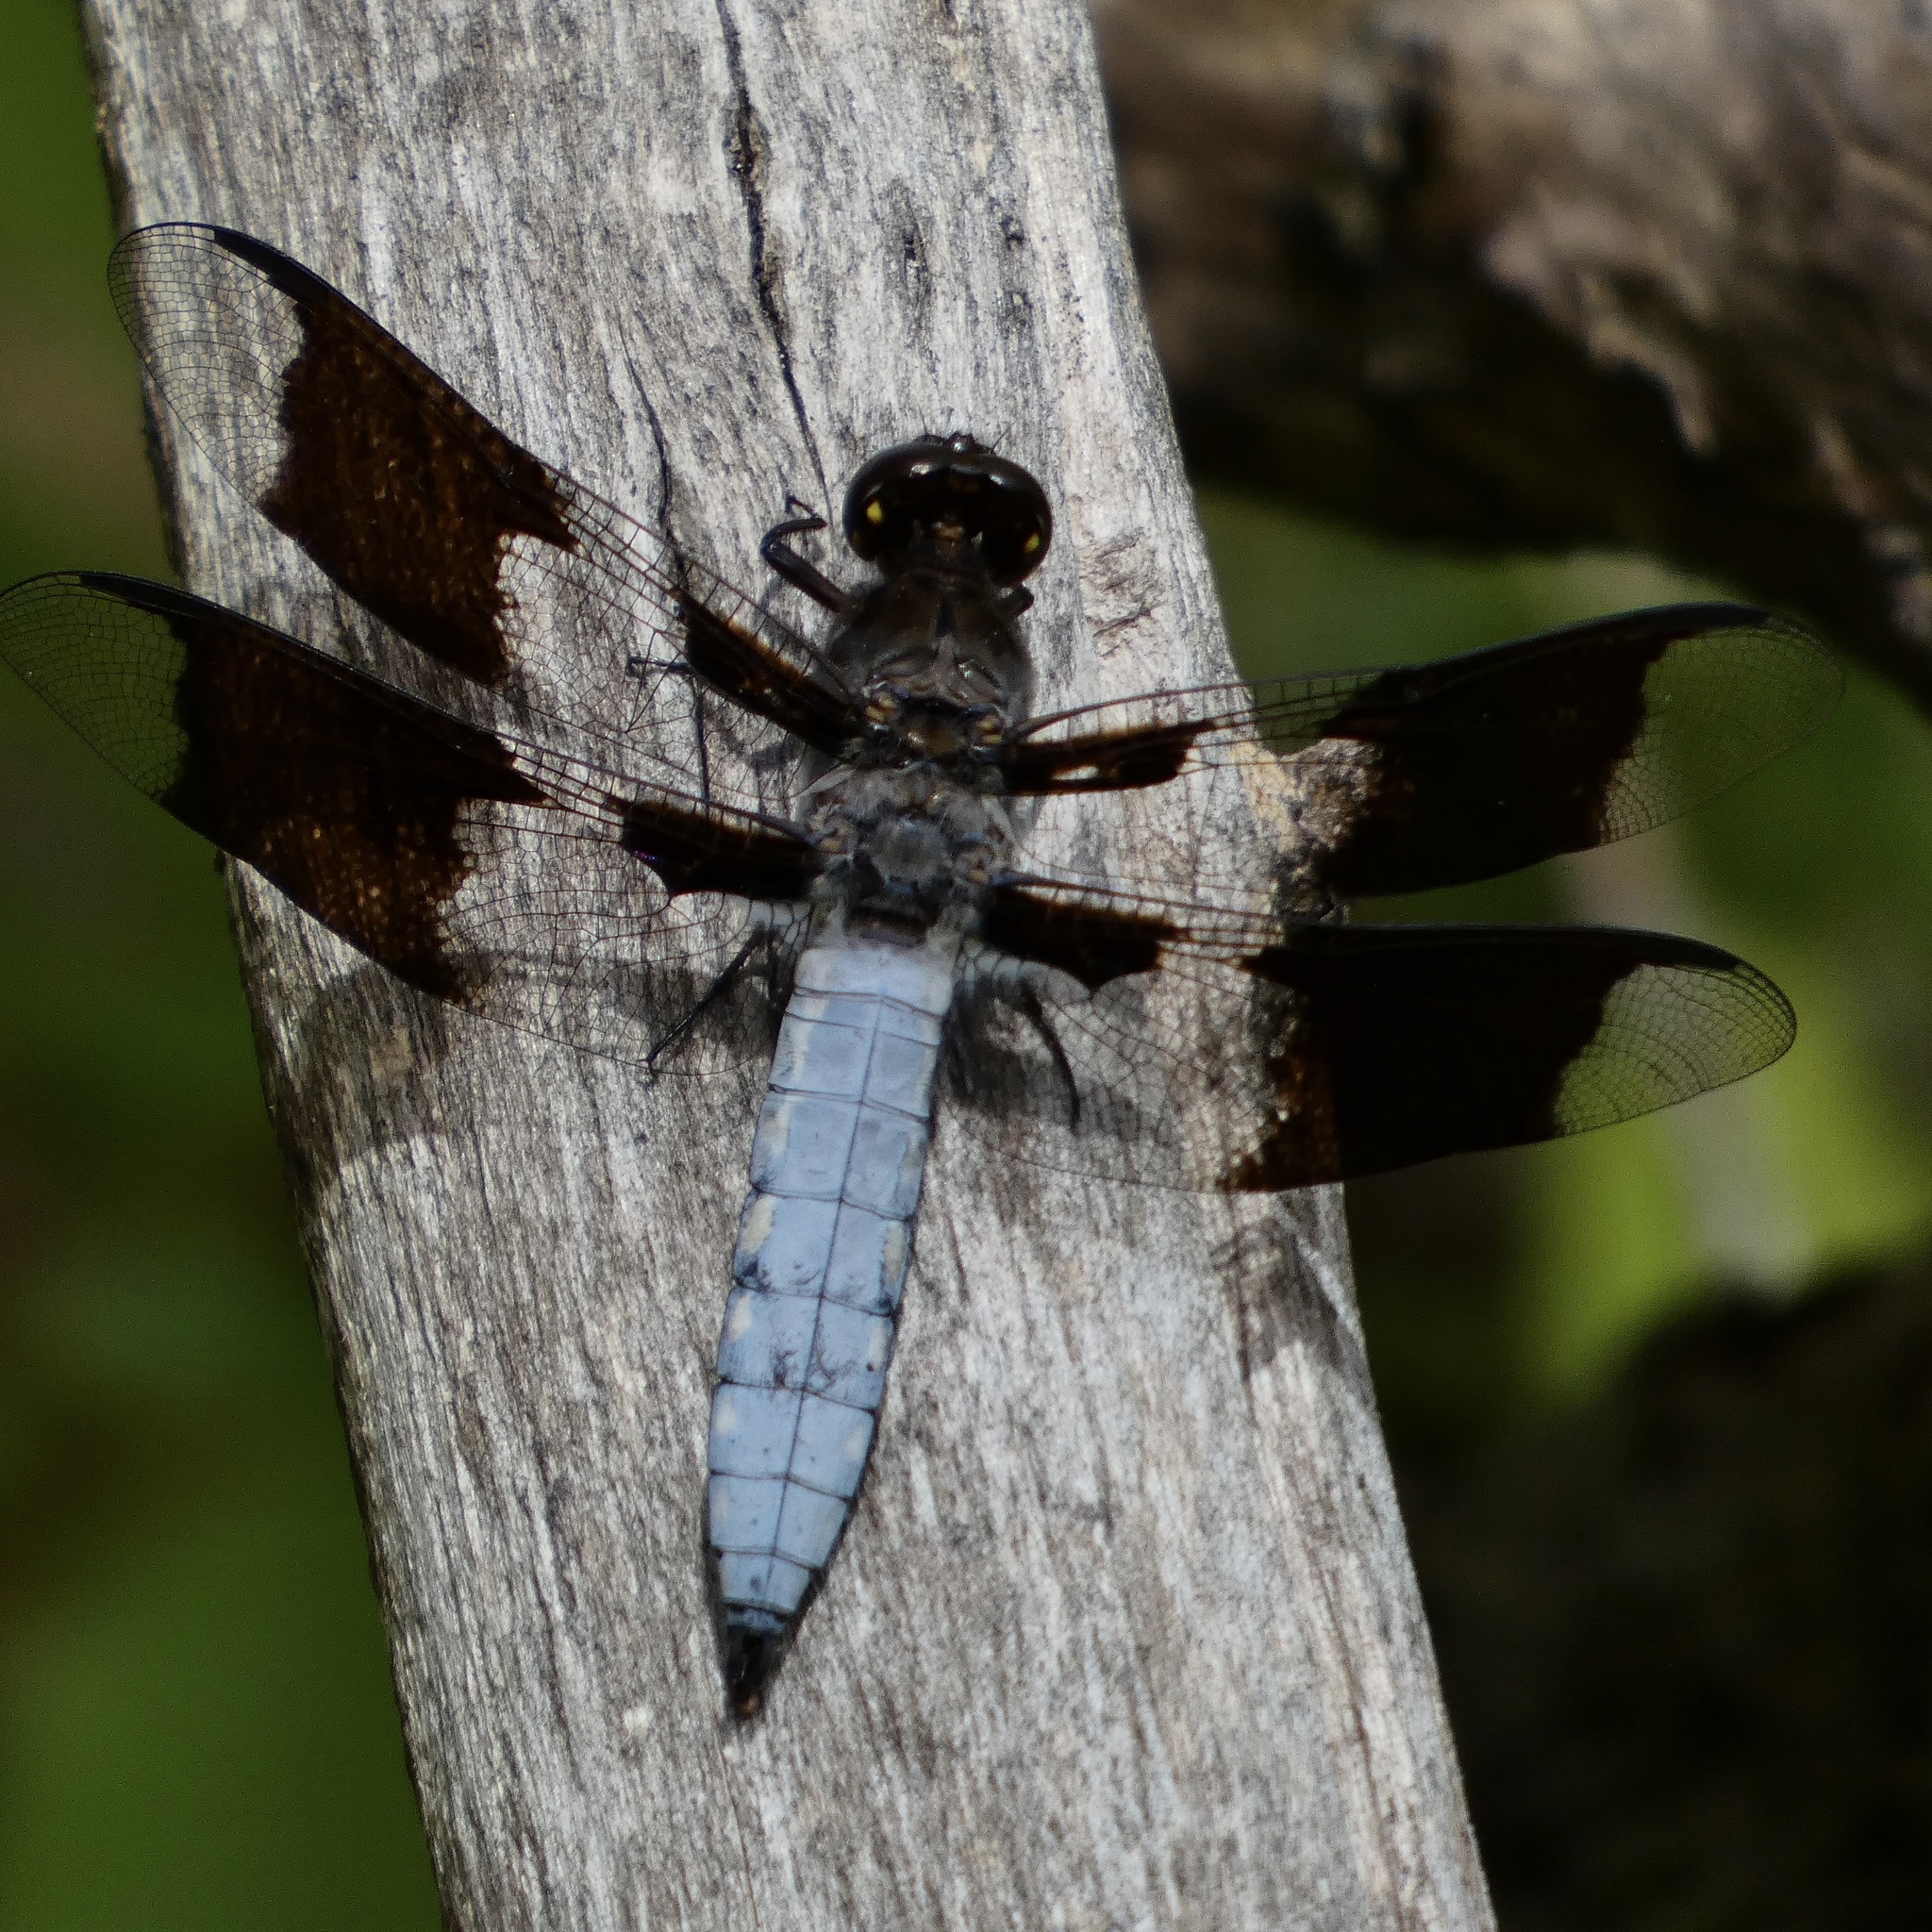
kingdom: Animalia
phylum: Arthropoda
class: Insecta
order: Odonata
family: Libellulidae
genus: Plathemis
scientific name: Plathemis lydia
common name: Common whitetail
